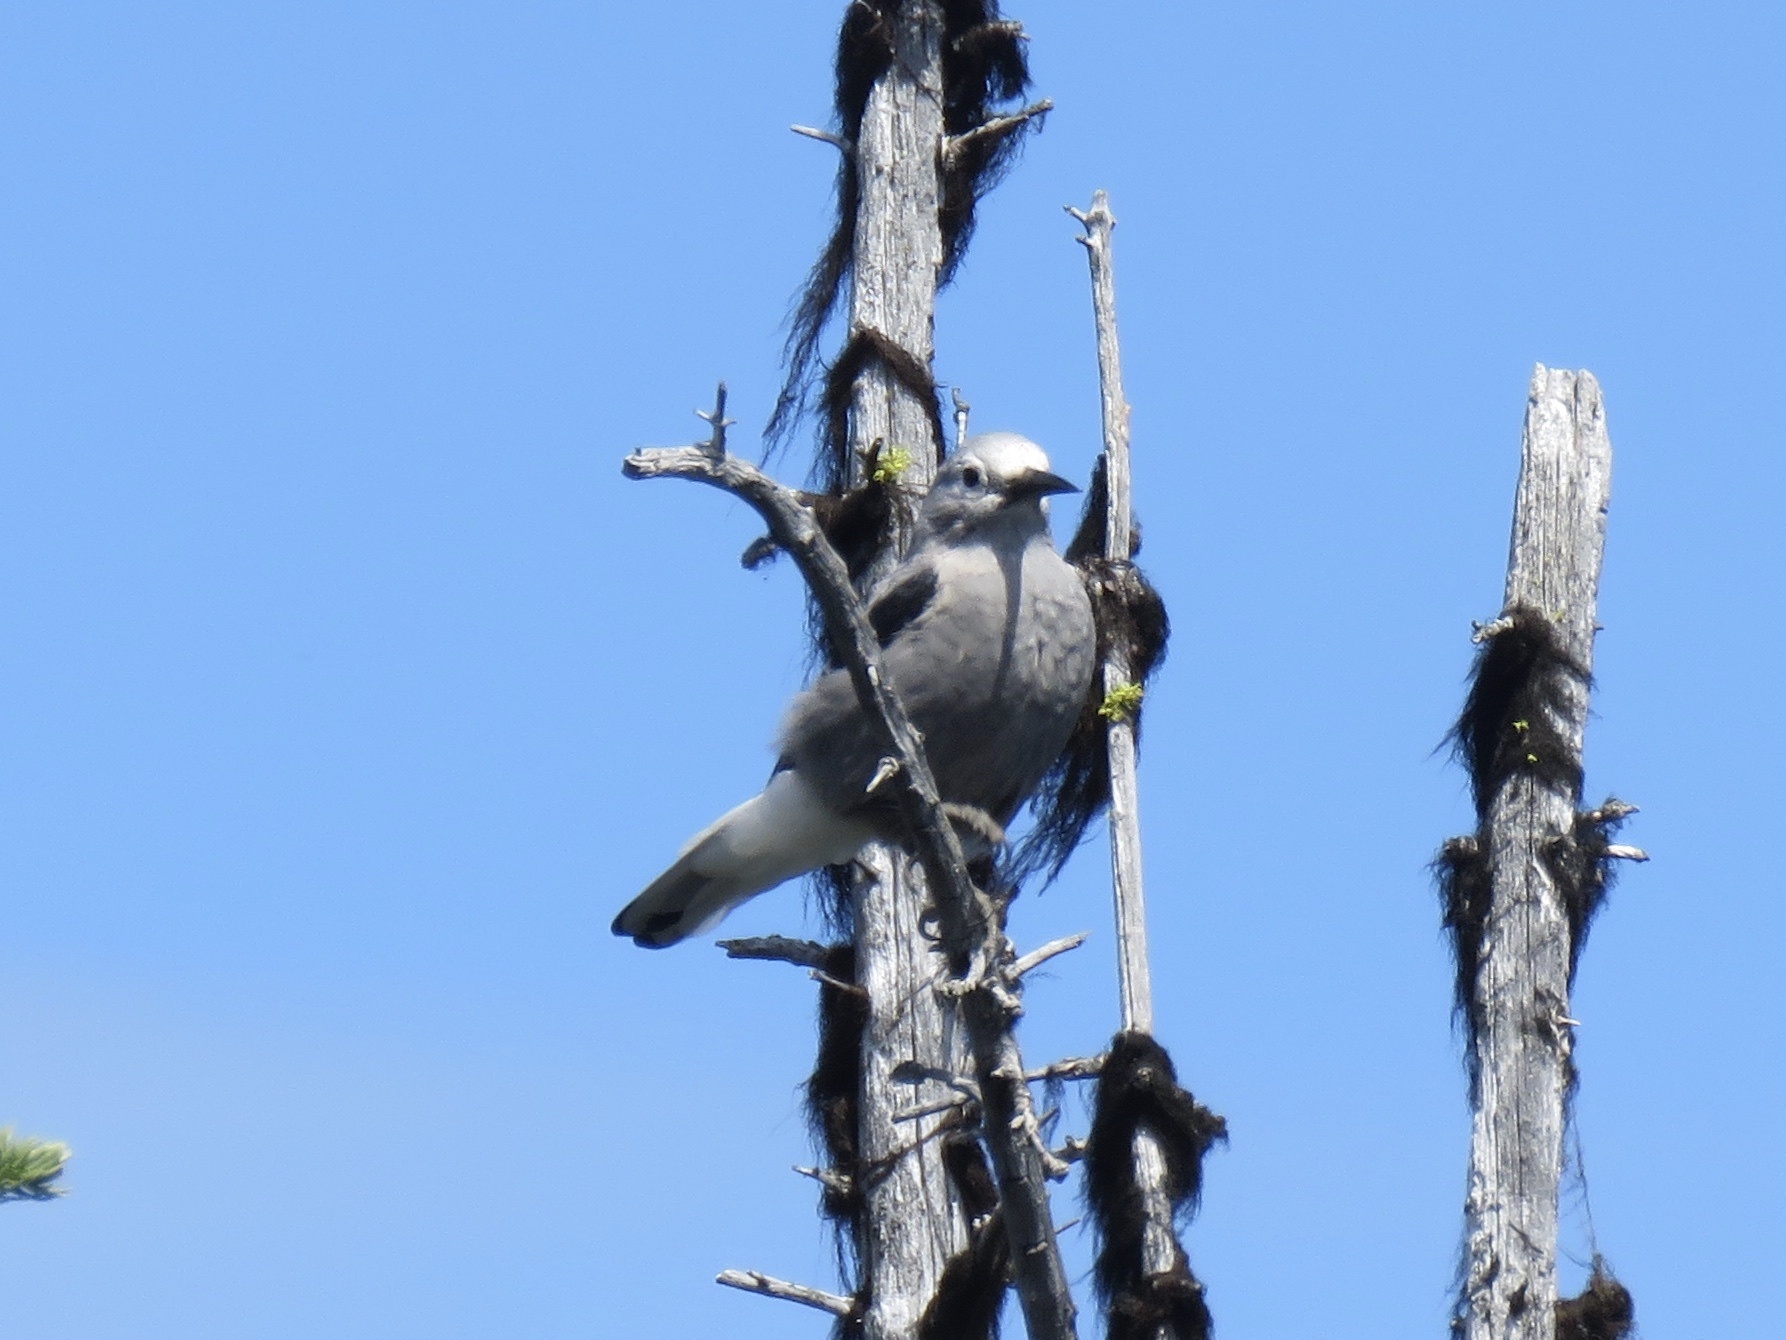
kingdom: Animalia
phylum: Chordata
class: Aves
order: Passeriformes
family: Corvidae
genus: Nucifraga
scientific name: Nucifraga columbiana
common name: Clark's nutcracker
